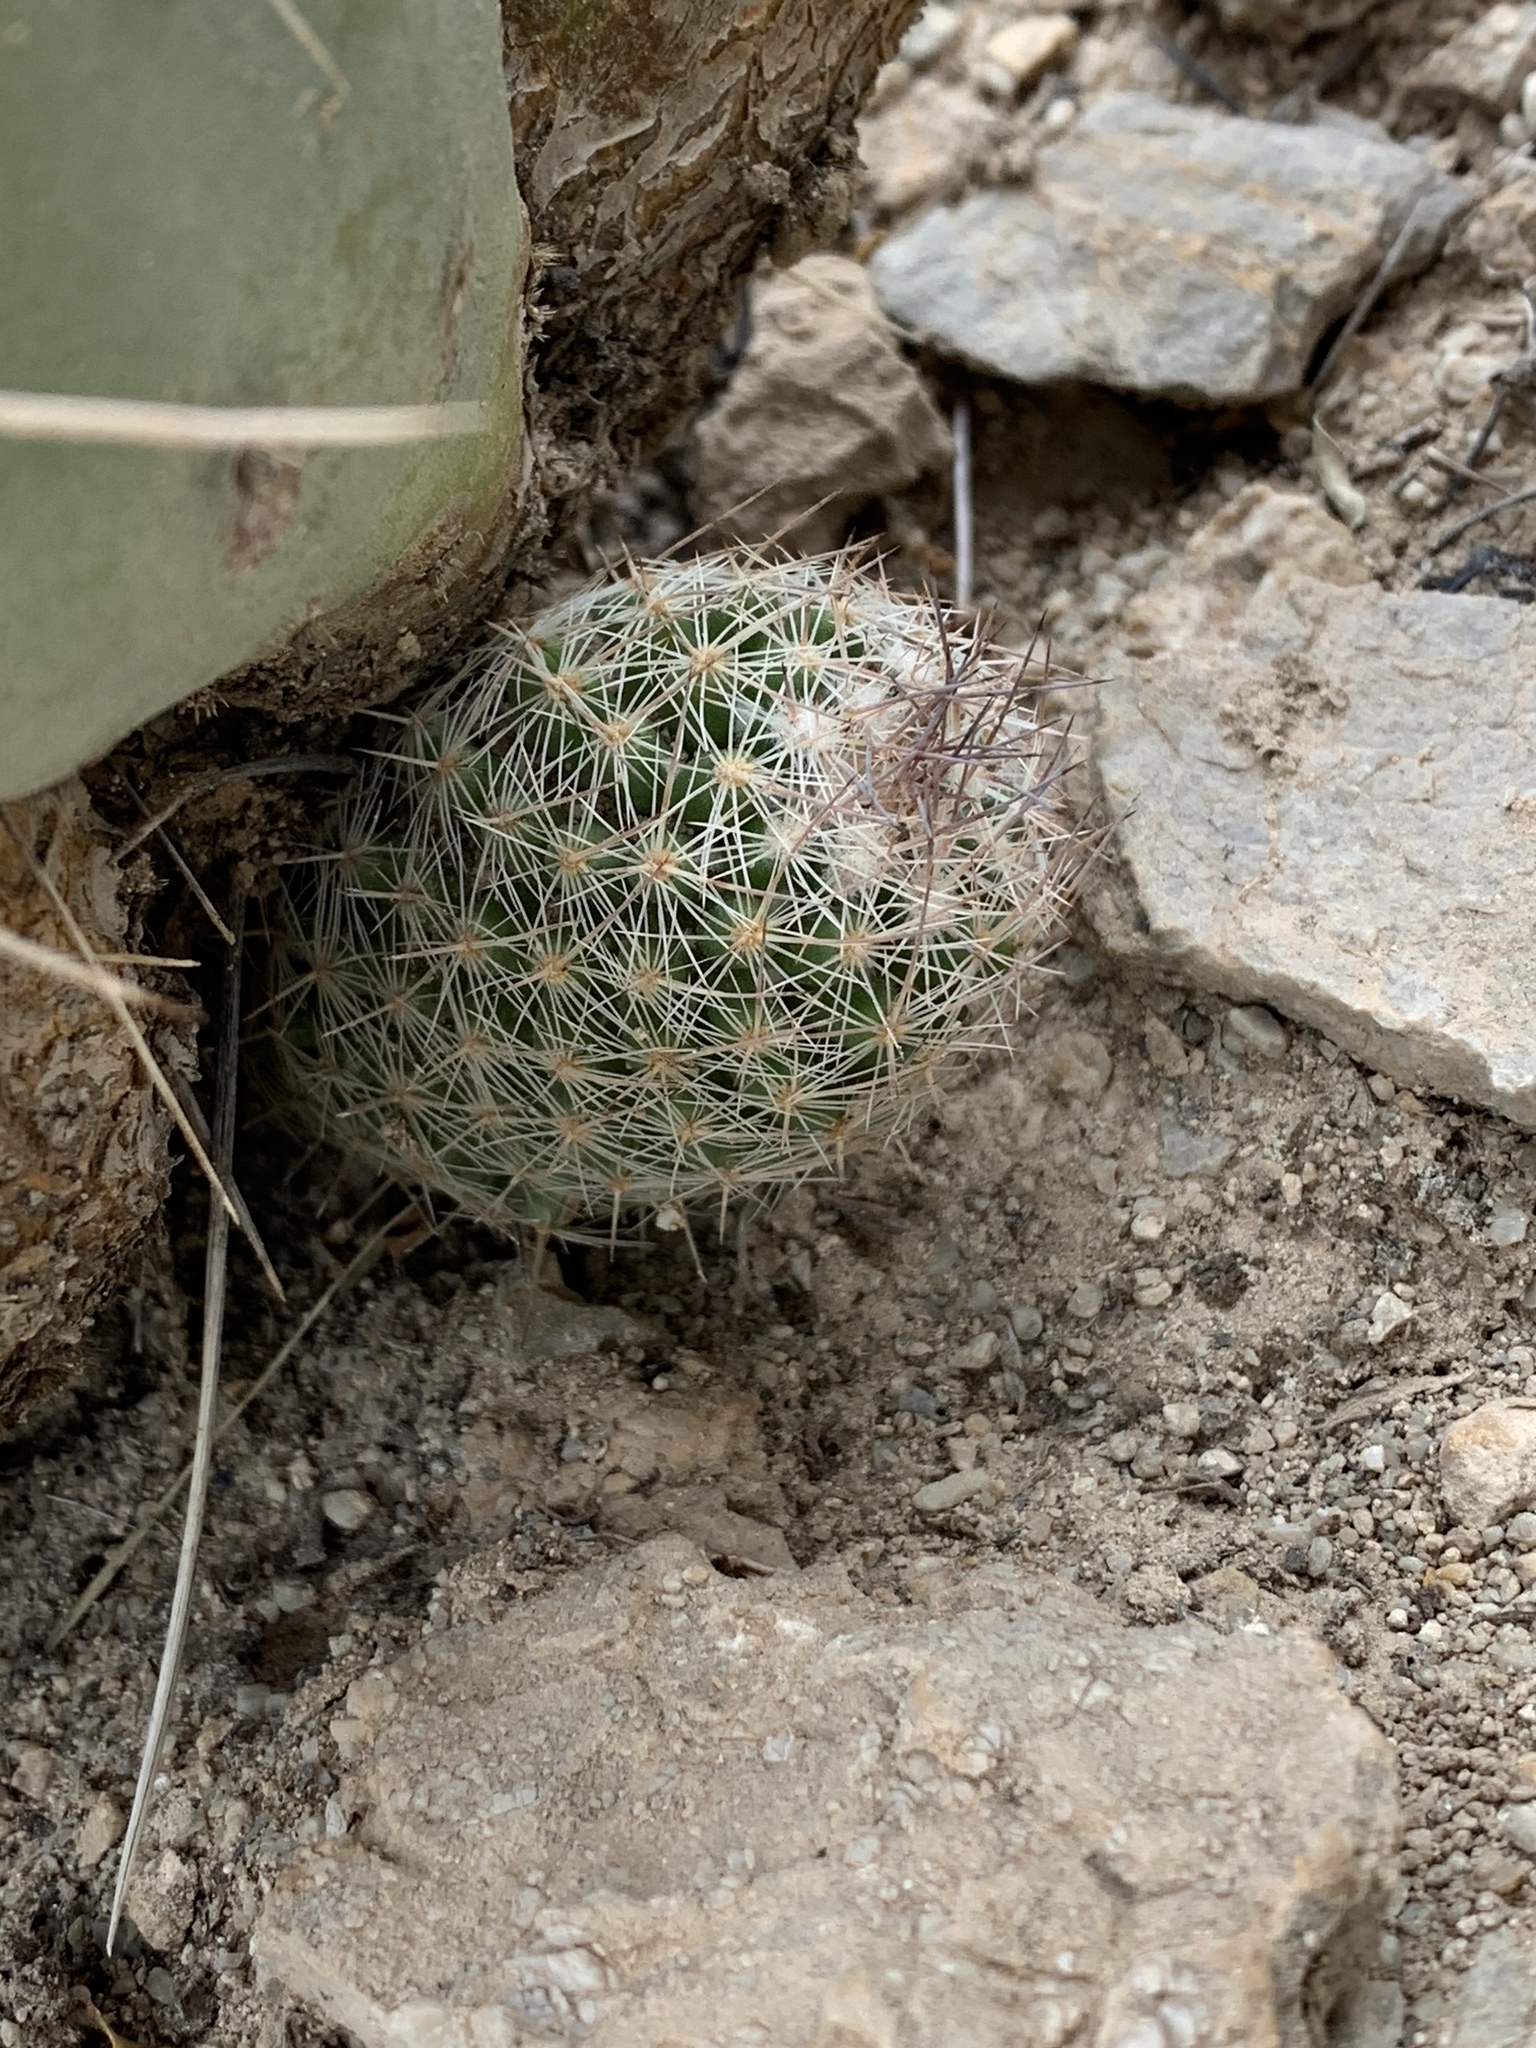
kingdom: Plantae
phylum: Tracheophyta
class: Magnoliopsida
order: Caryophyllales
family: Cactaceae
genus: Pelecyphora
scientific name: Pelecyphora tuberculosa
